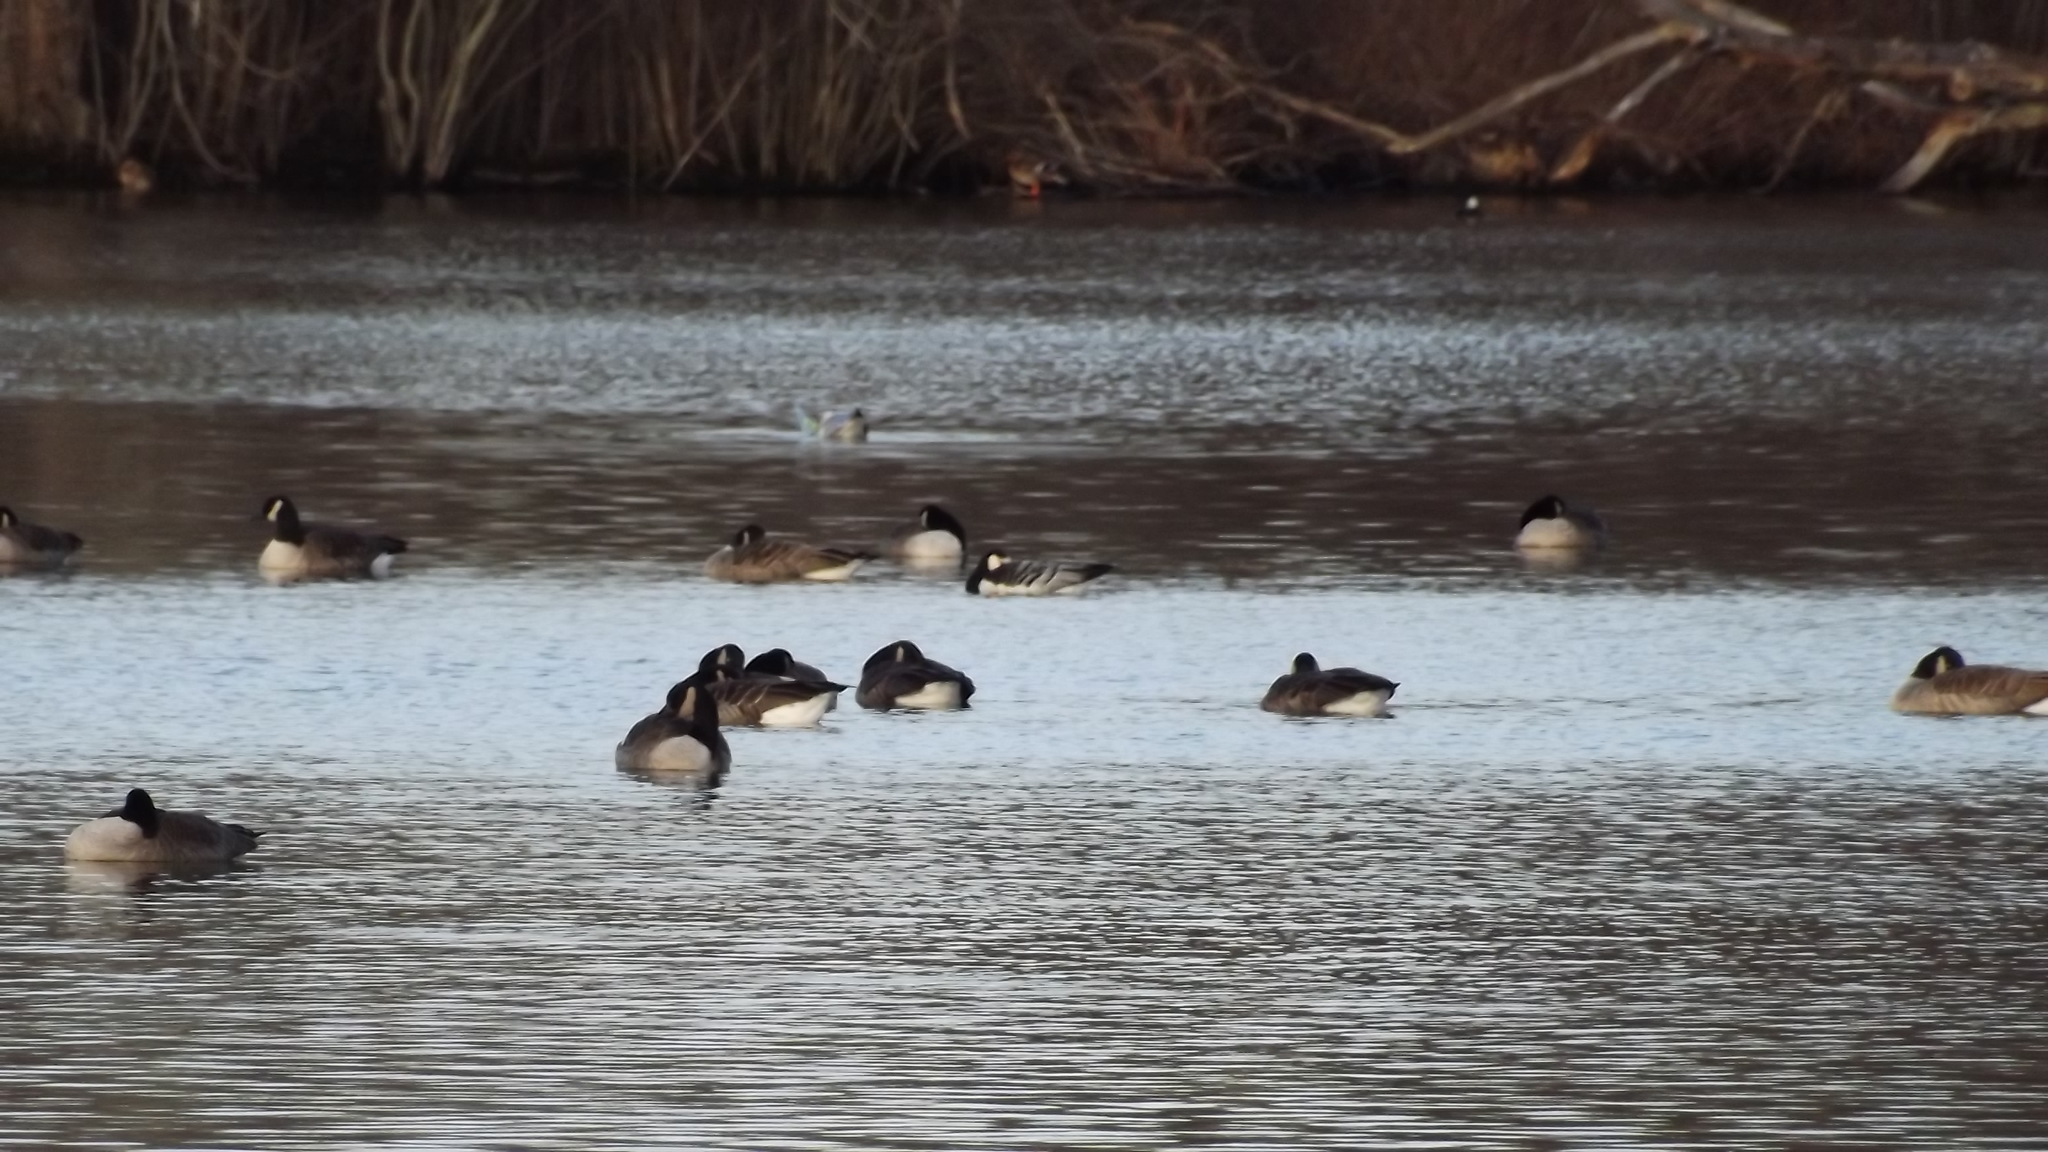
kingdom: Animalia
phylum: Chordata
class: Aves
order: Anseriformes
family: Anatidae
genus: Branta
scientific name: Branta leucopsis
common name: Barnacle goose
